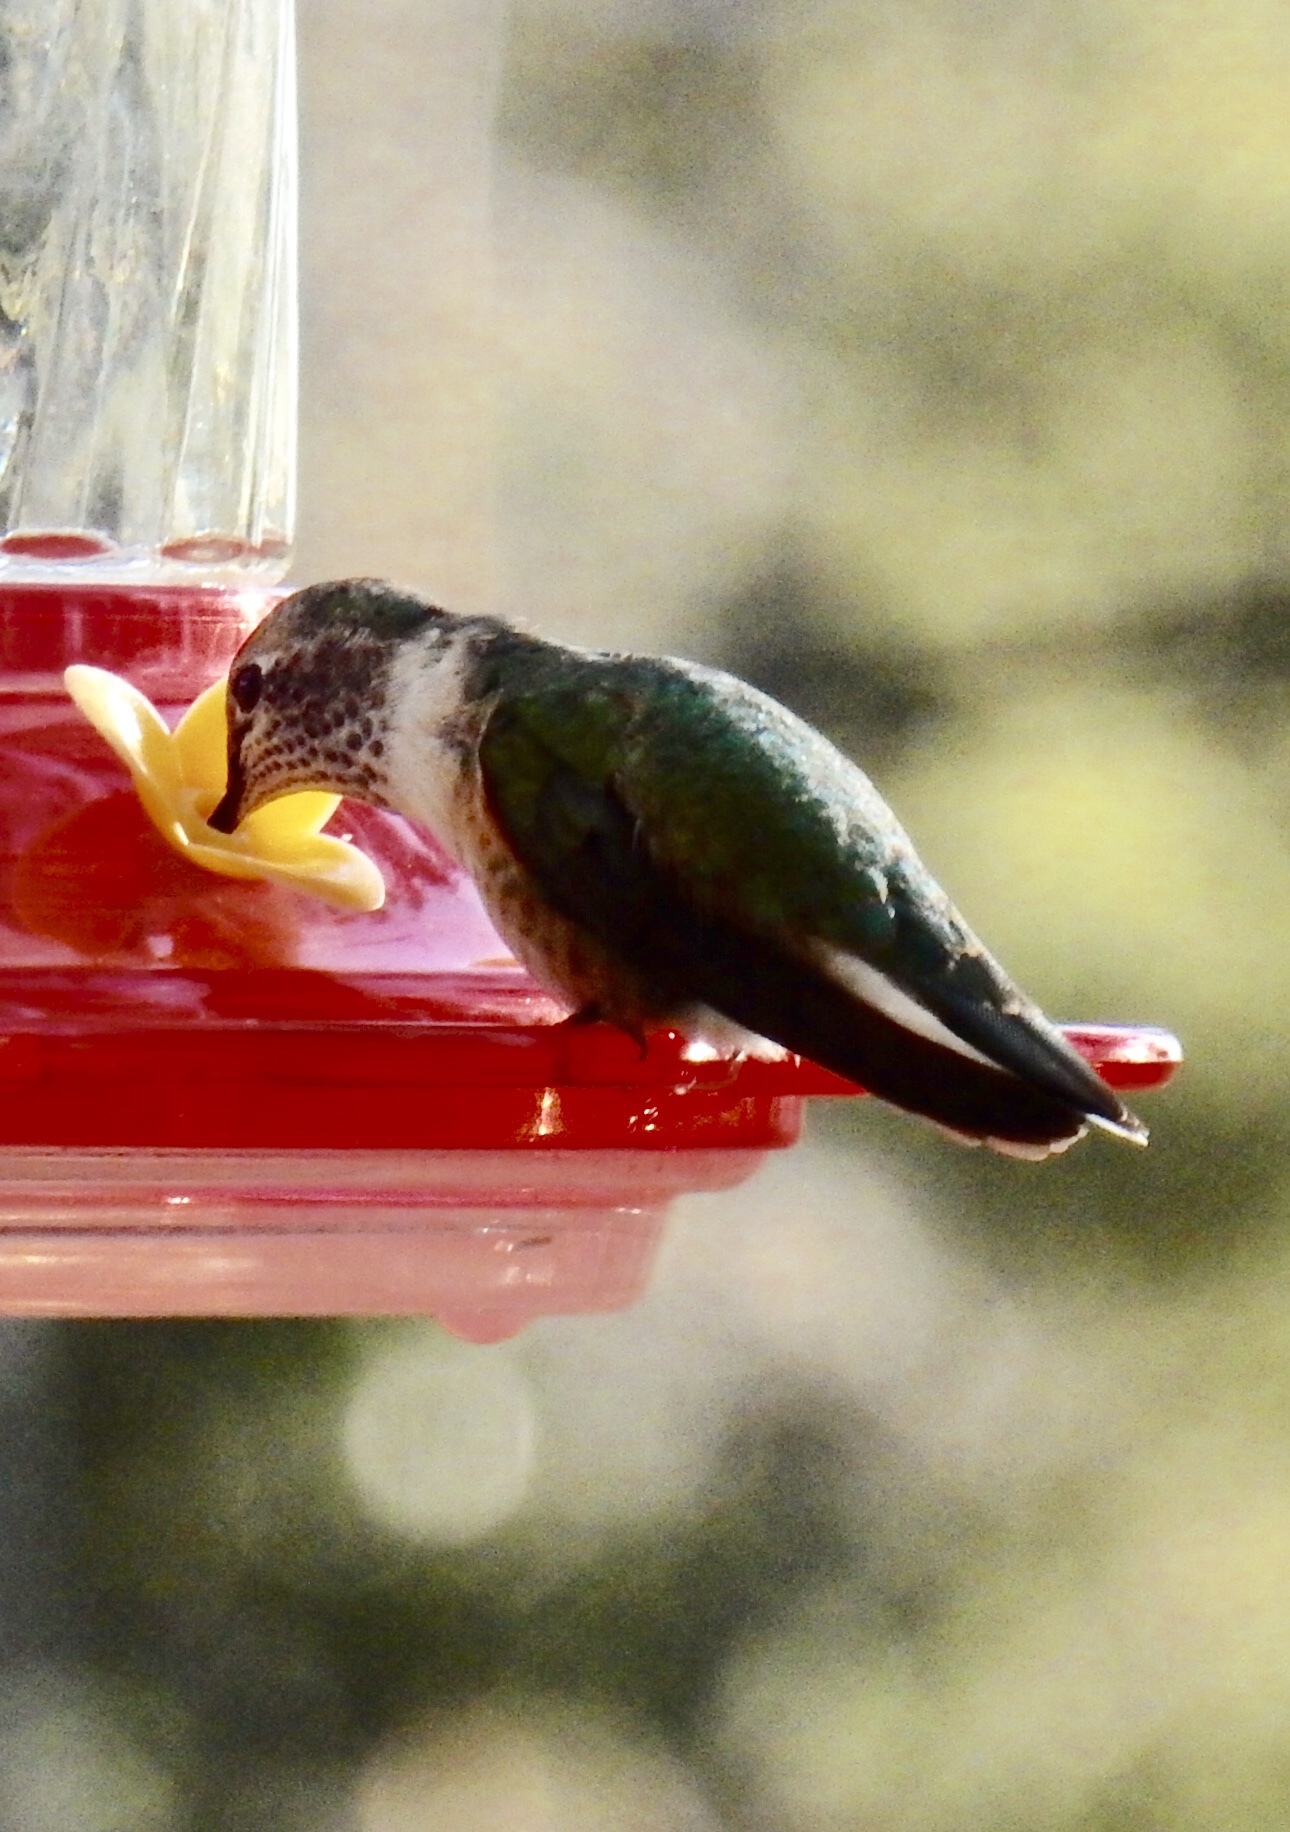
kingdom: Animalia
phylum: Chordata
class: Aves
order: Apodiformes
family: Trochilidae
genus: Selasphorus
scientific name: Selasphorus platycercus
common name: Broad-tailed hummingbird
